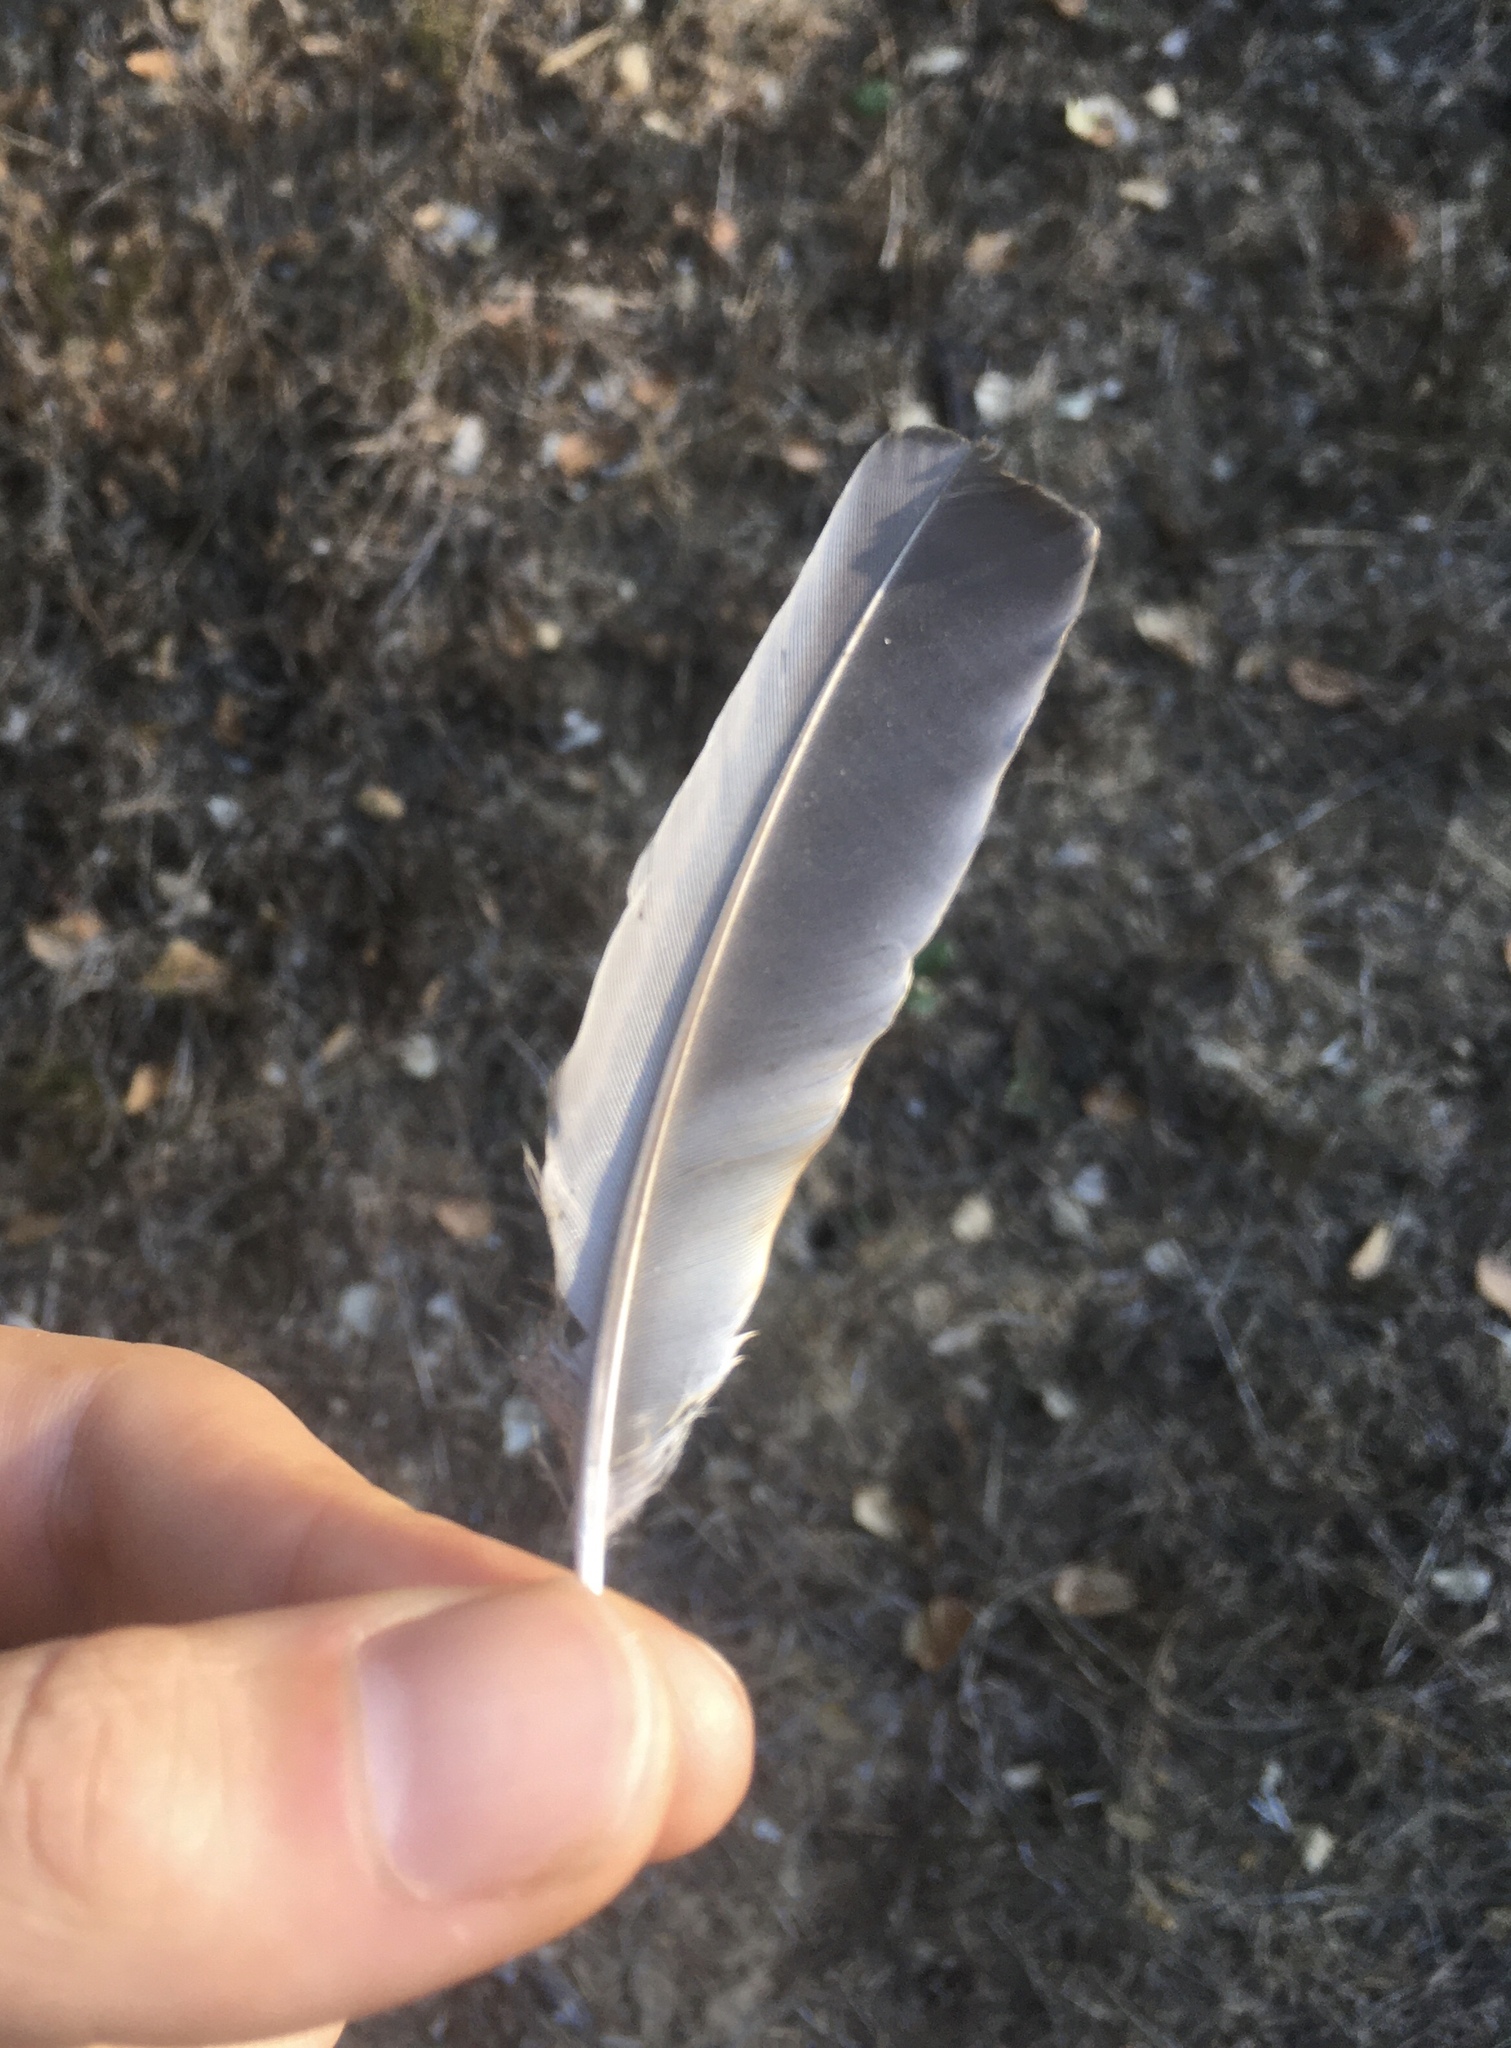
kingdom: Animalia
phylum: Chordata
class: Aves
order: Passeriformes
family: Turdidae
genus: Turdus
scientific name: Turdus migratorius
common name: American robin
